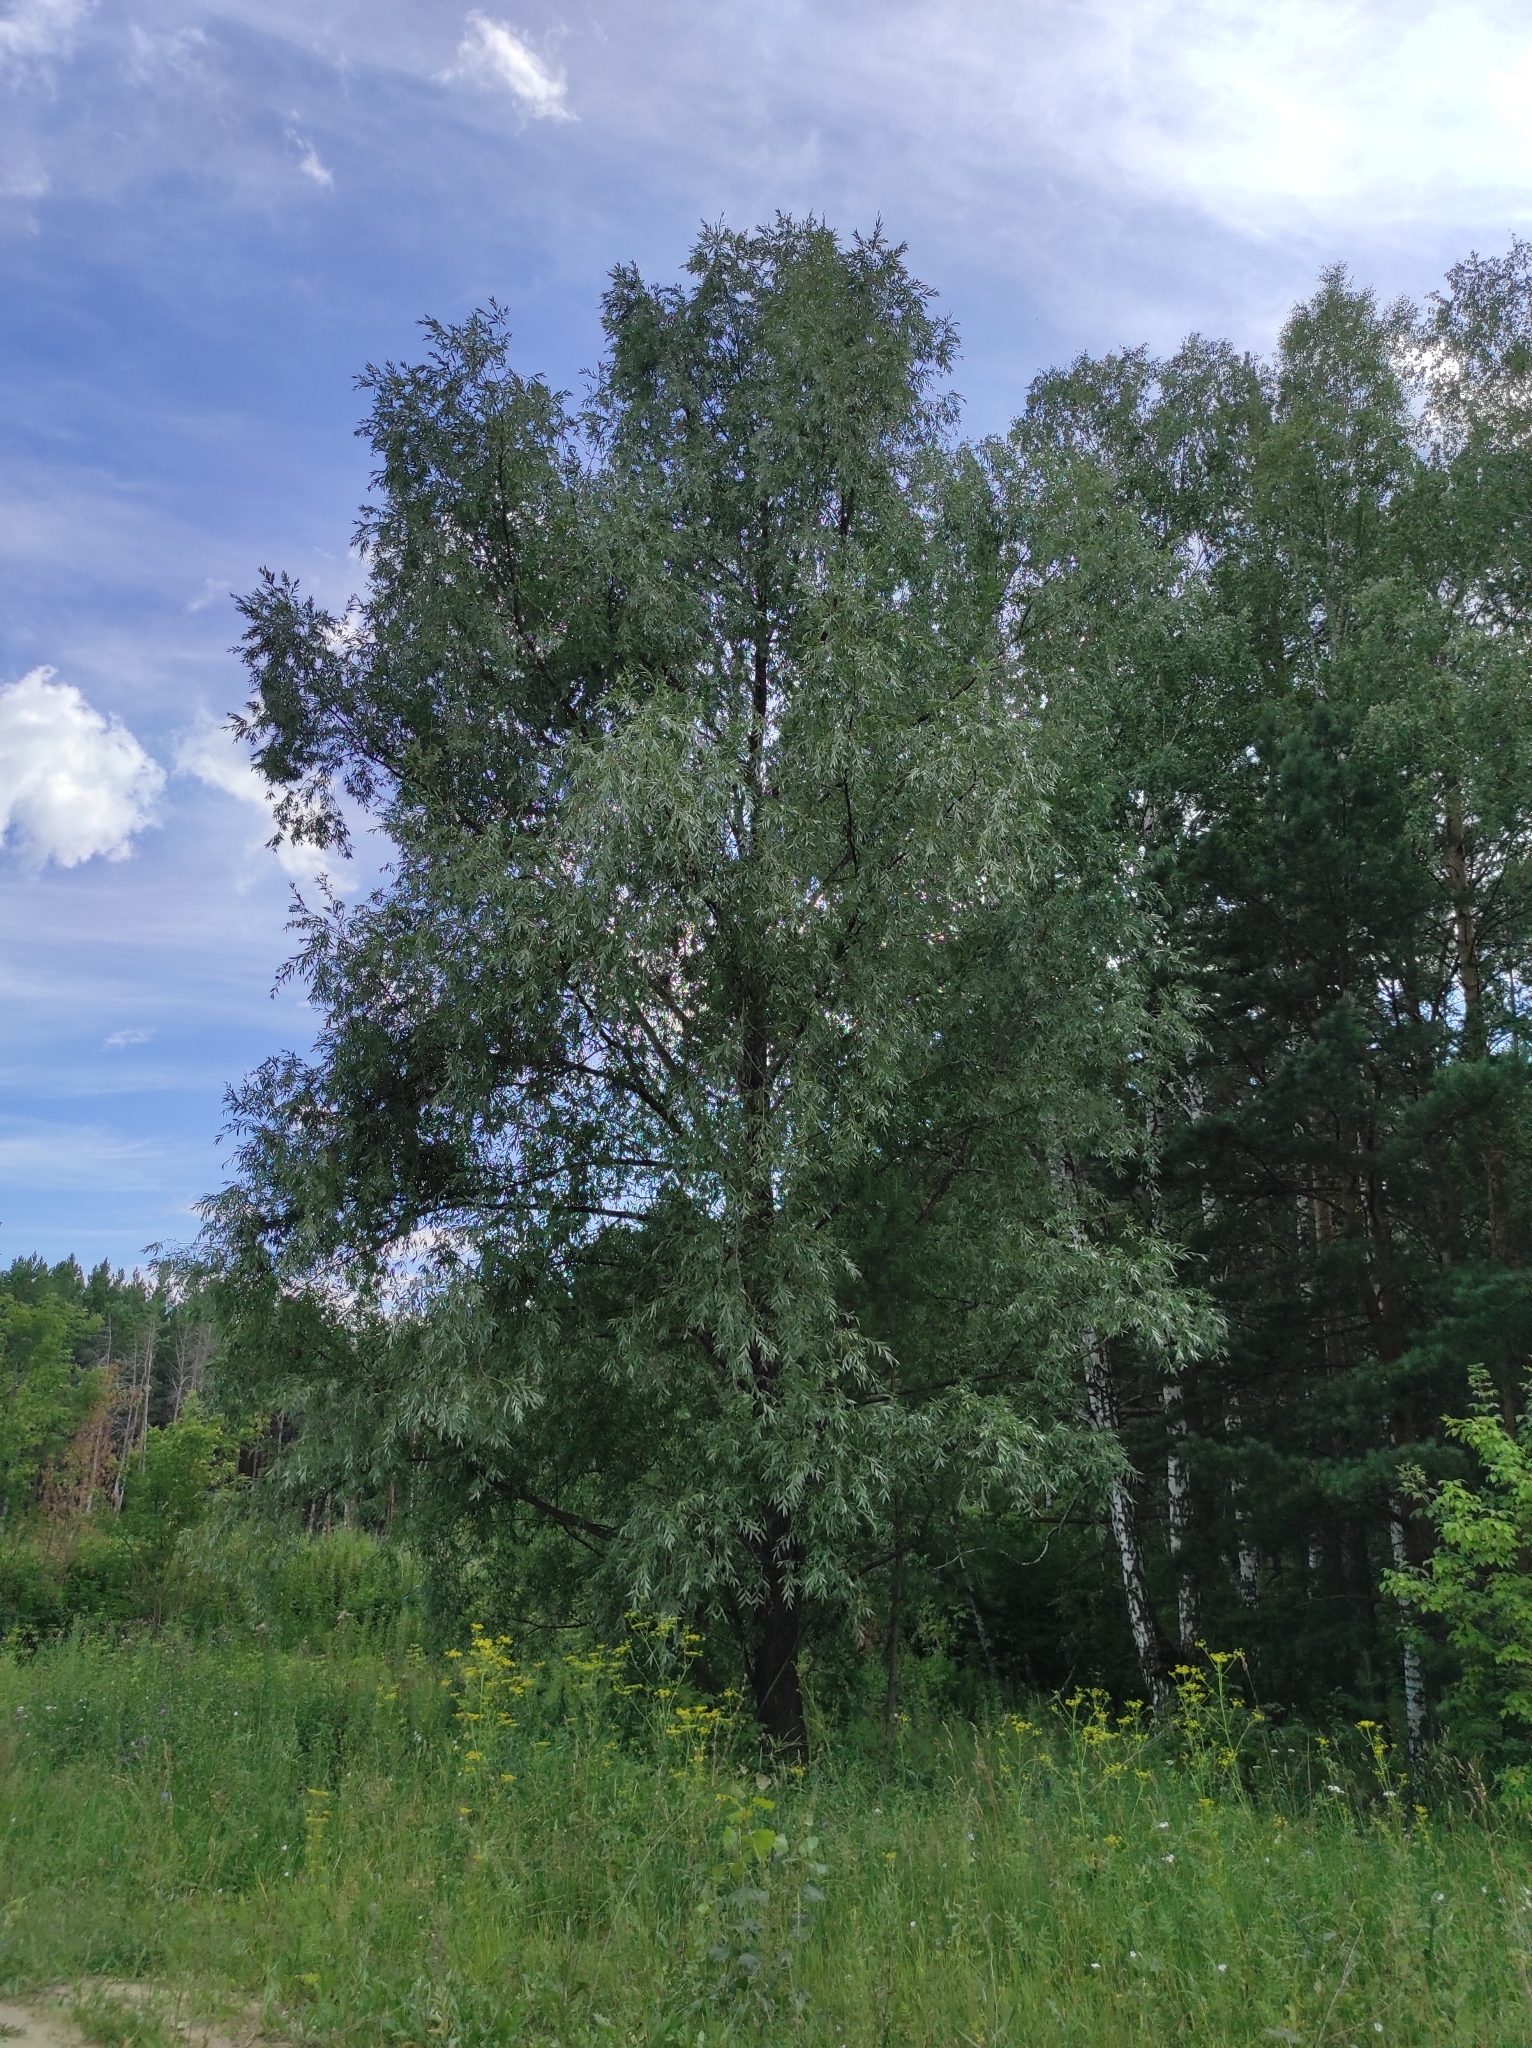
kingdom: Plantae
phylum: Tracheophyta
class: Pinopsida
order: Pinales
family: Pinaceae
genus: Pinus
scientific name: Pinus sylvestris
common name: Scots pine
